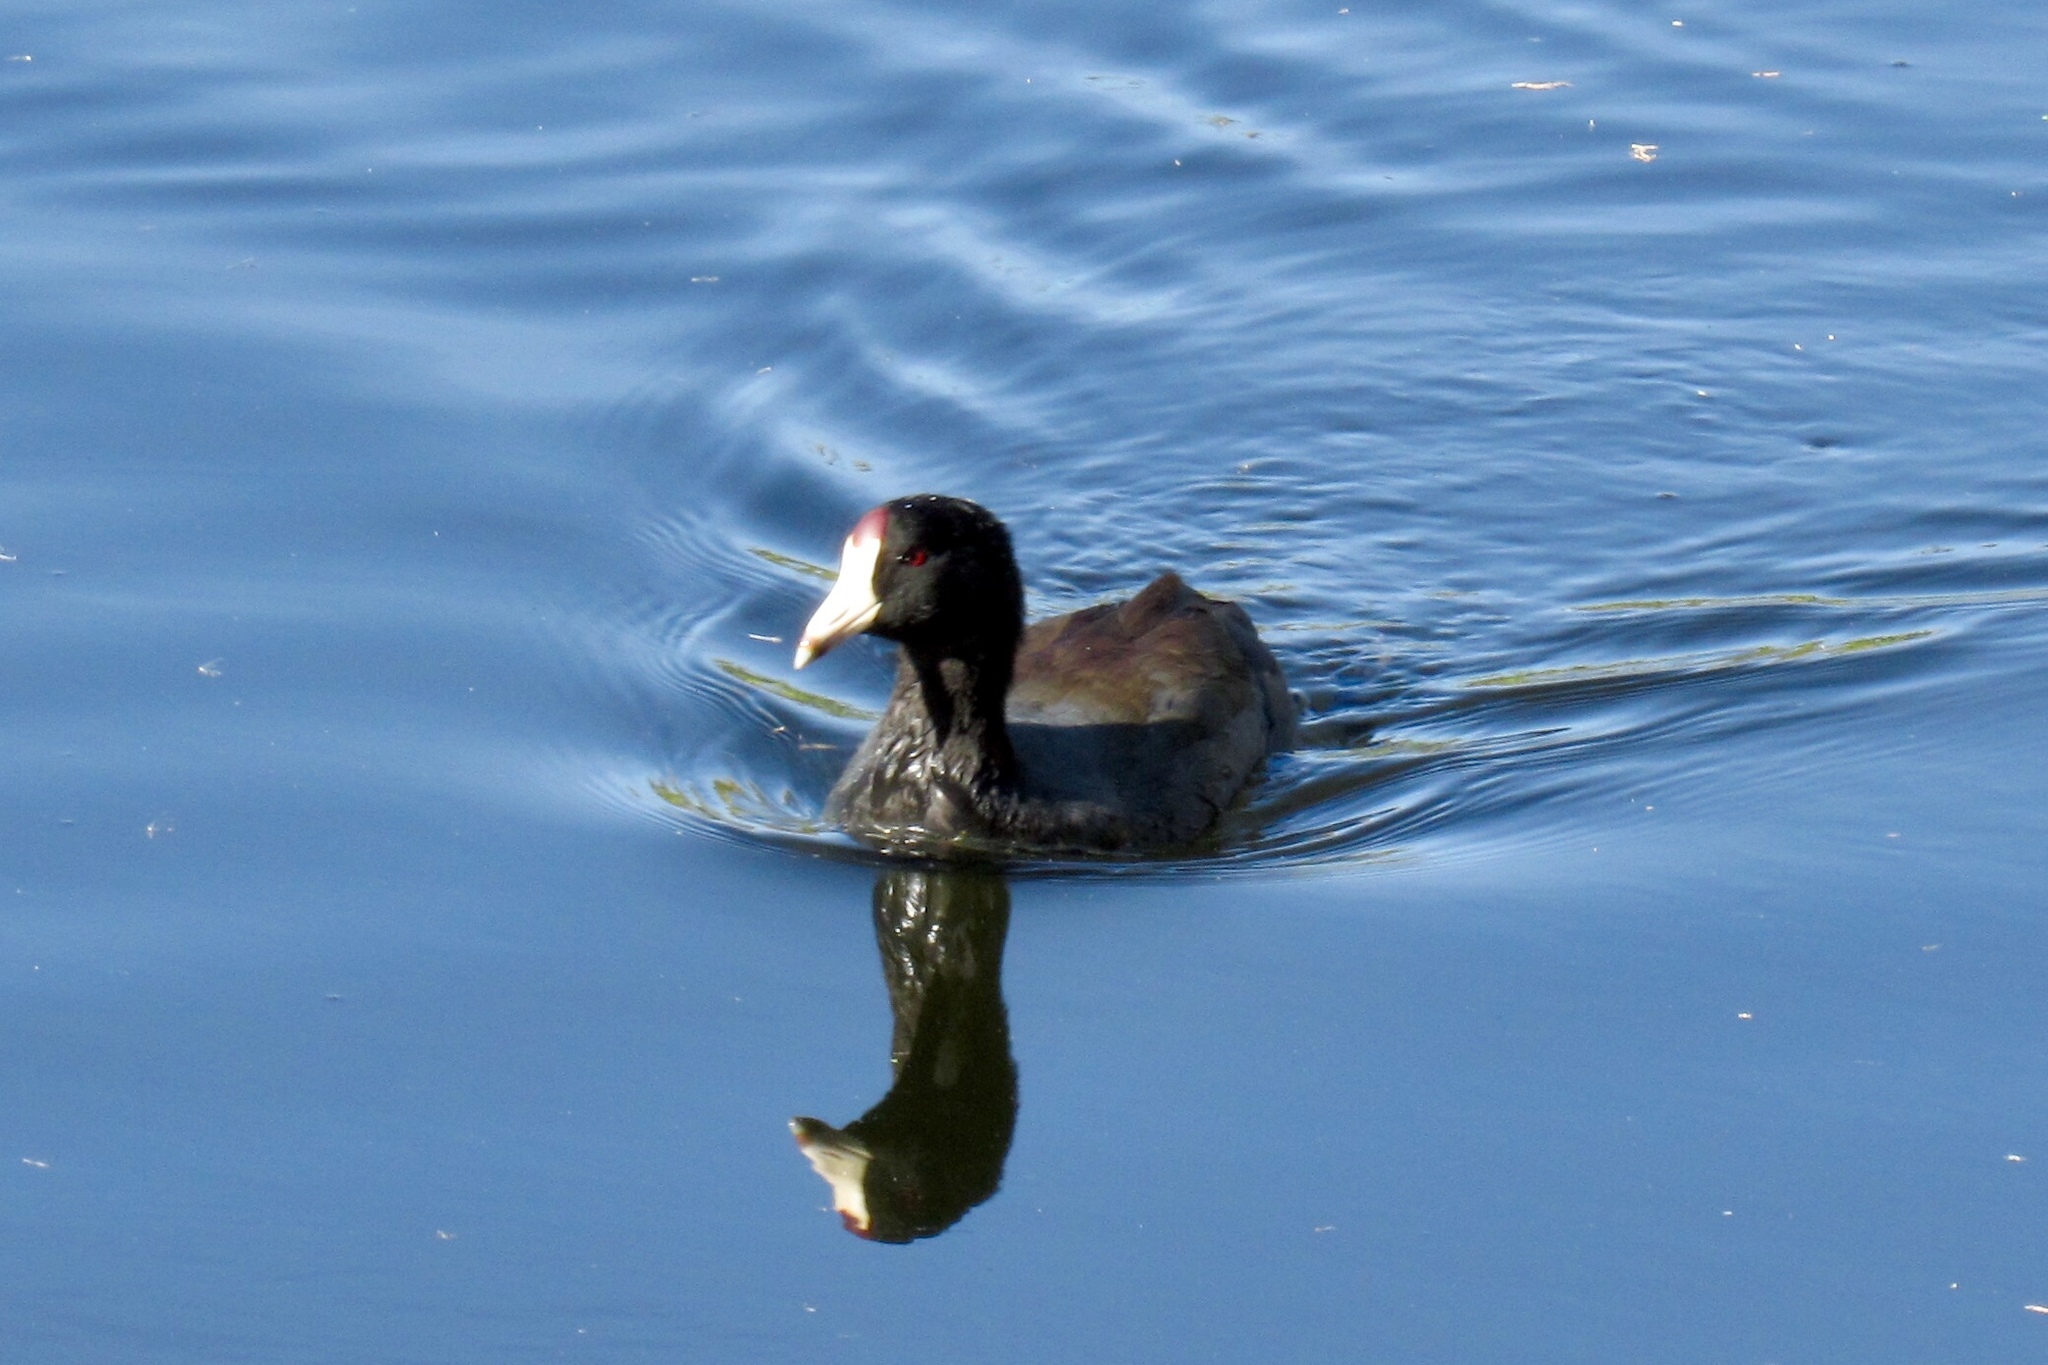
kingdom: Animalia
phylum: Chordata
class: Aves
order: Gruiformes
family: Rallidae
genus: Fulica
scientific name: Fulica americana
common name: American coot
